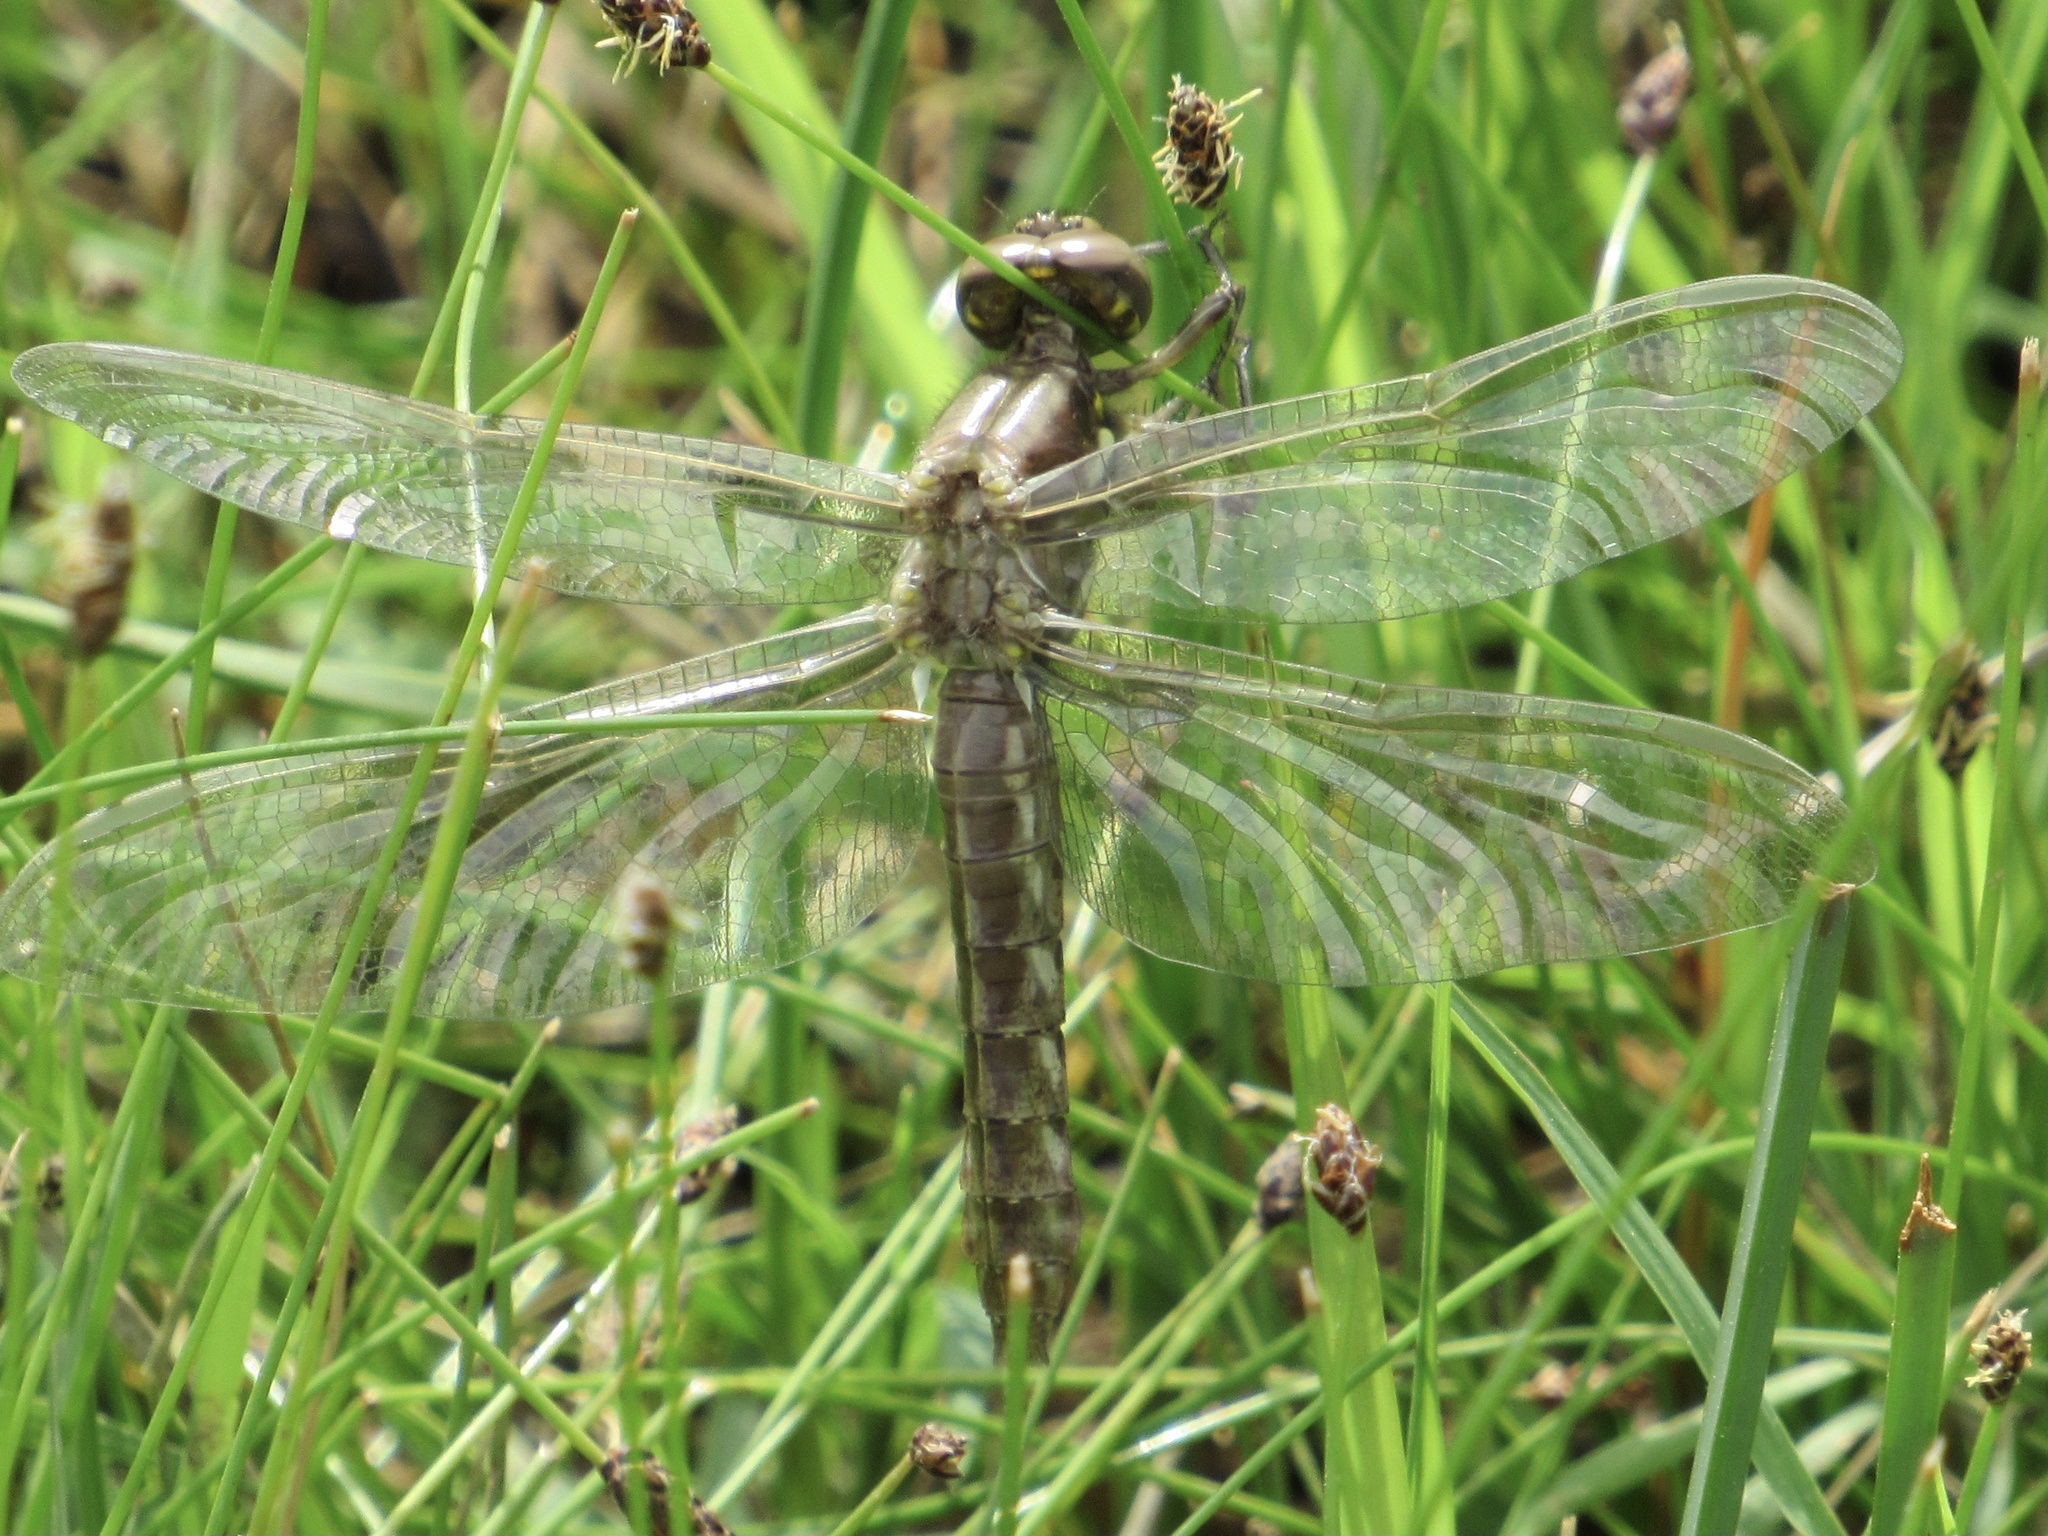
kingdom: Animalia
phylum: Arthropoda
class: Insecta
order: Odonata
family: Libellulidae
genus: Plathemis
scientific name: Plathemis lydia
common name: Common whitetail
